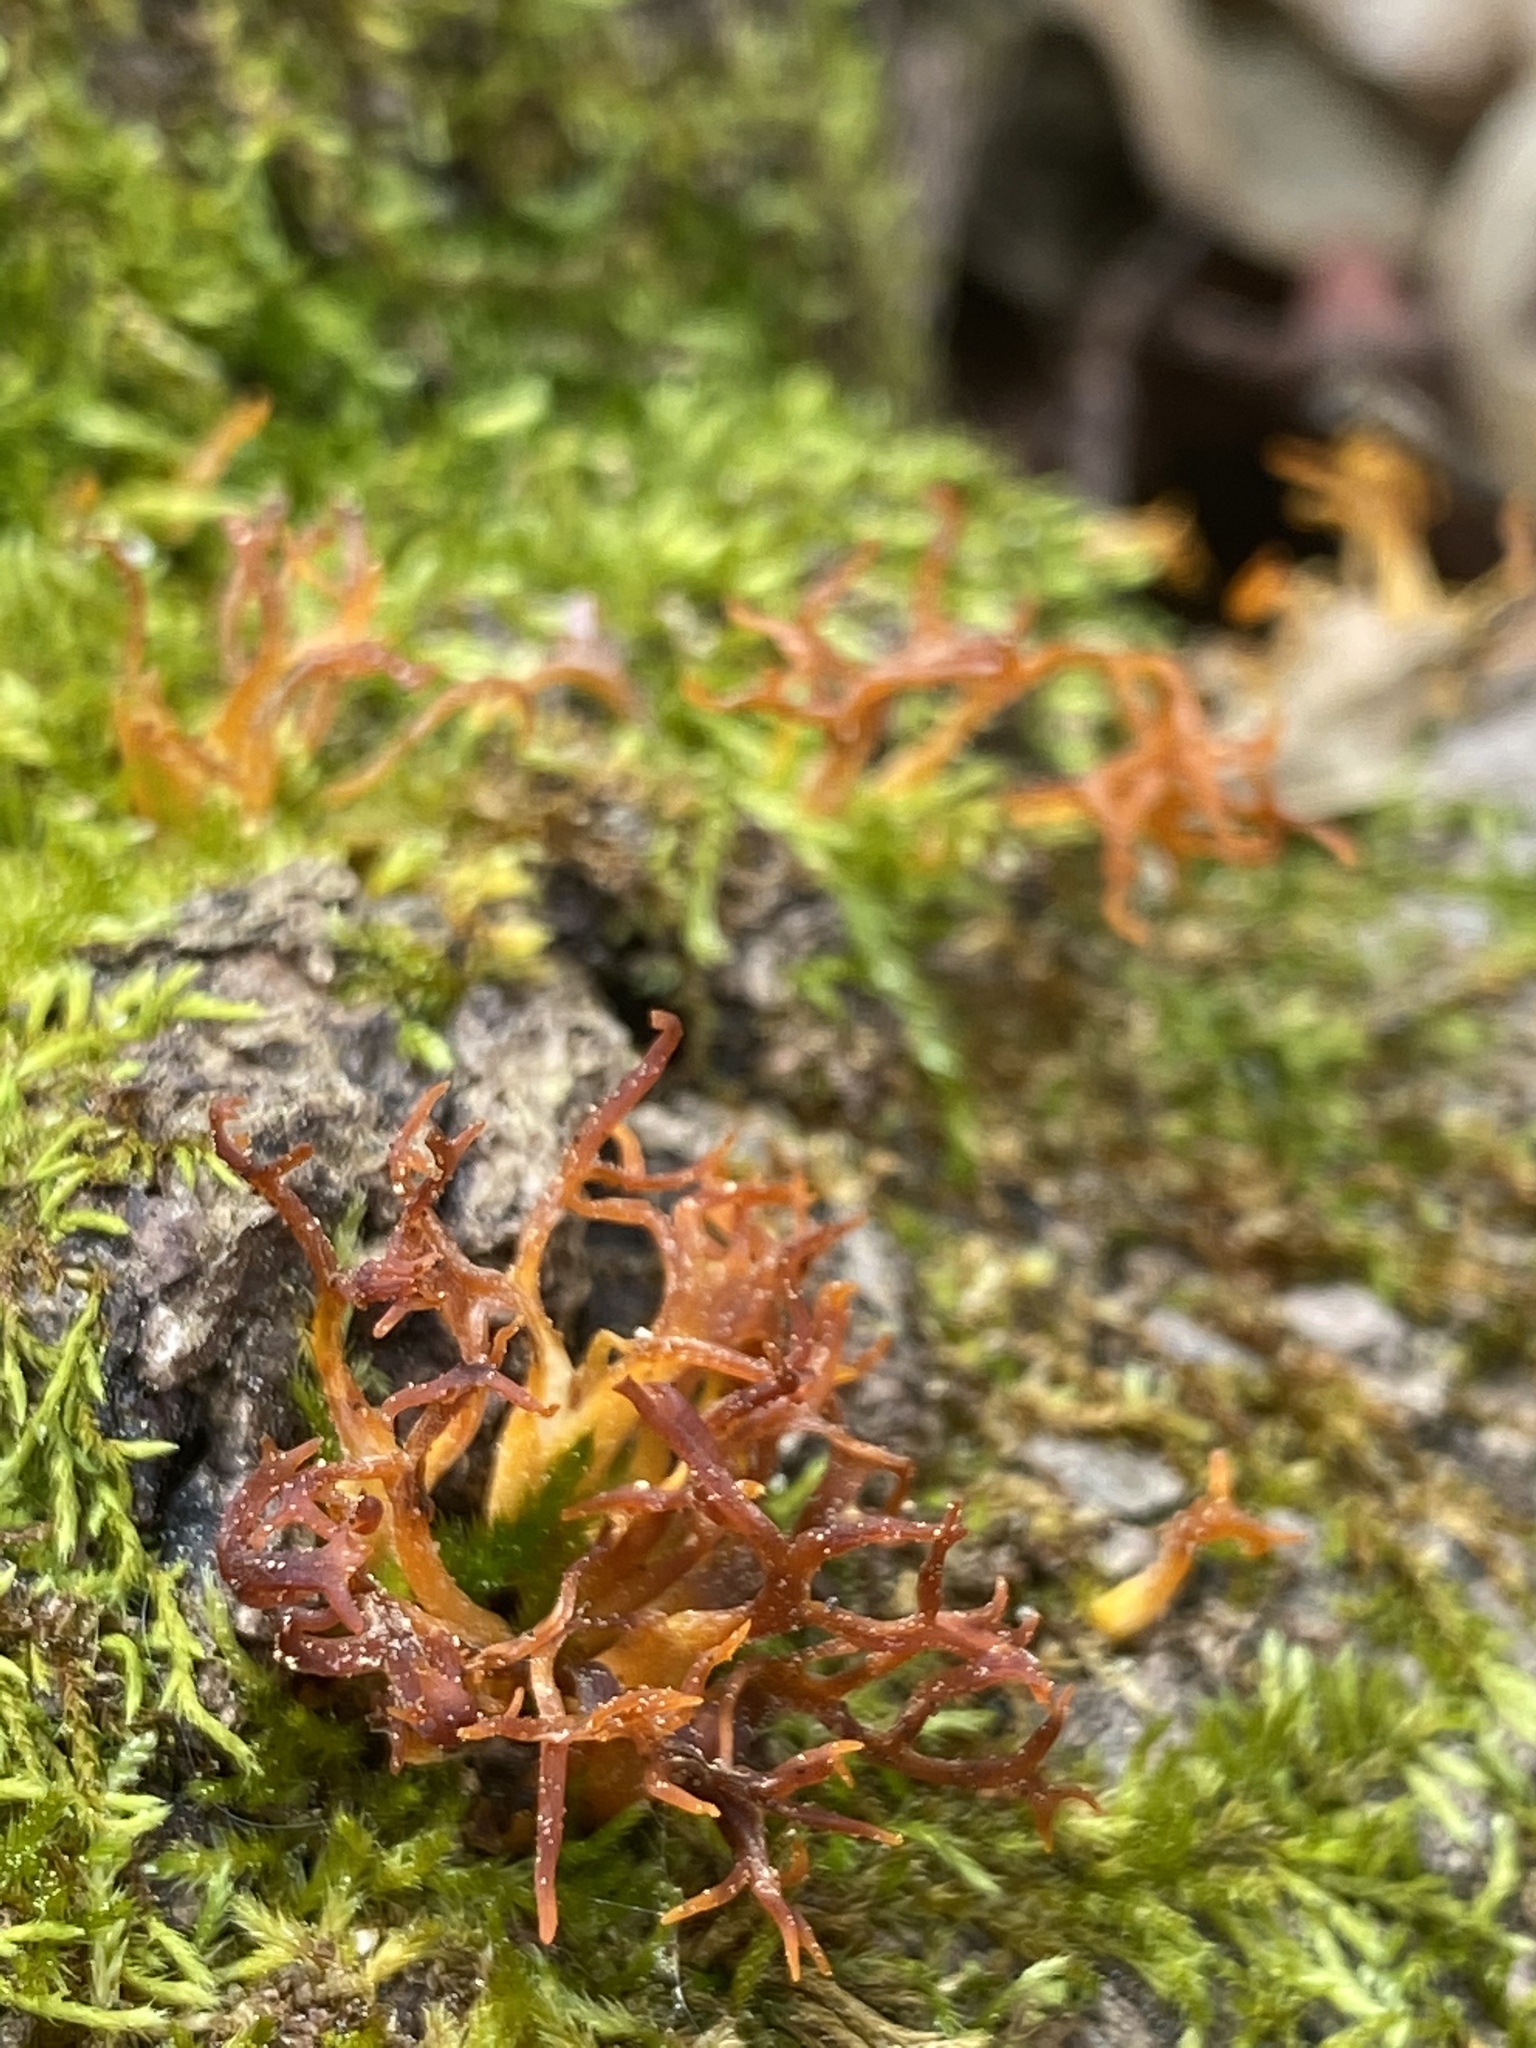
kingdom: Fungi
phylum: Basidiomycota
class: Dacrymycetes
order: Dacrymycetales
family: Dacrymycetaceae
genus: Calocera
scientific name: Calocera cornea
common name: Small stagshorn
